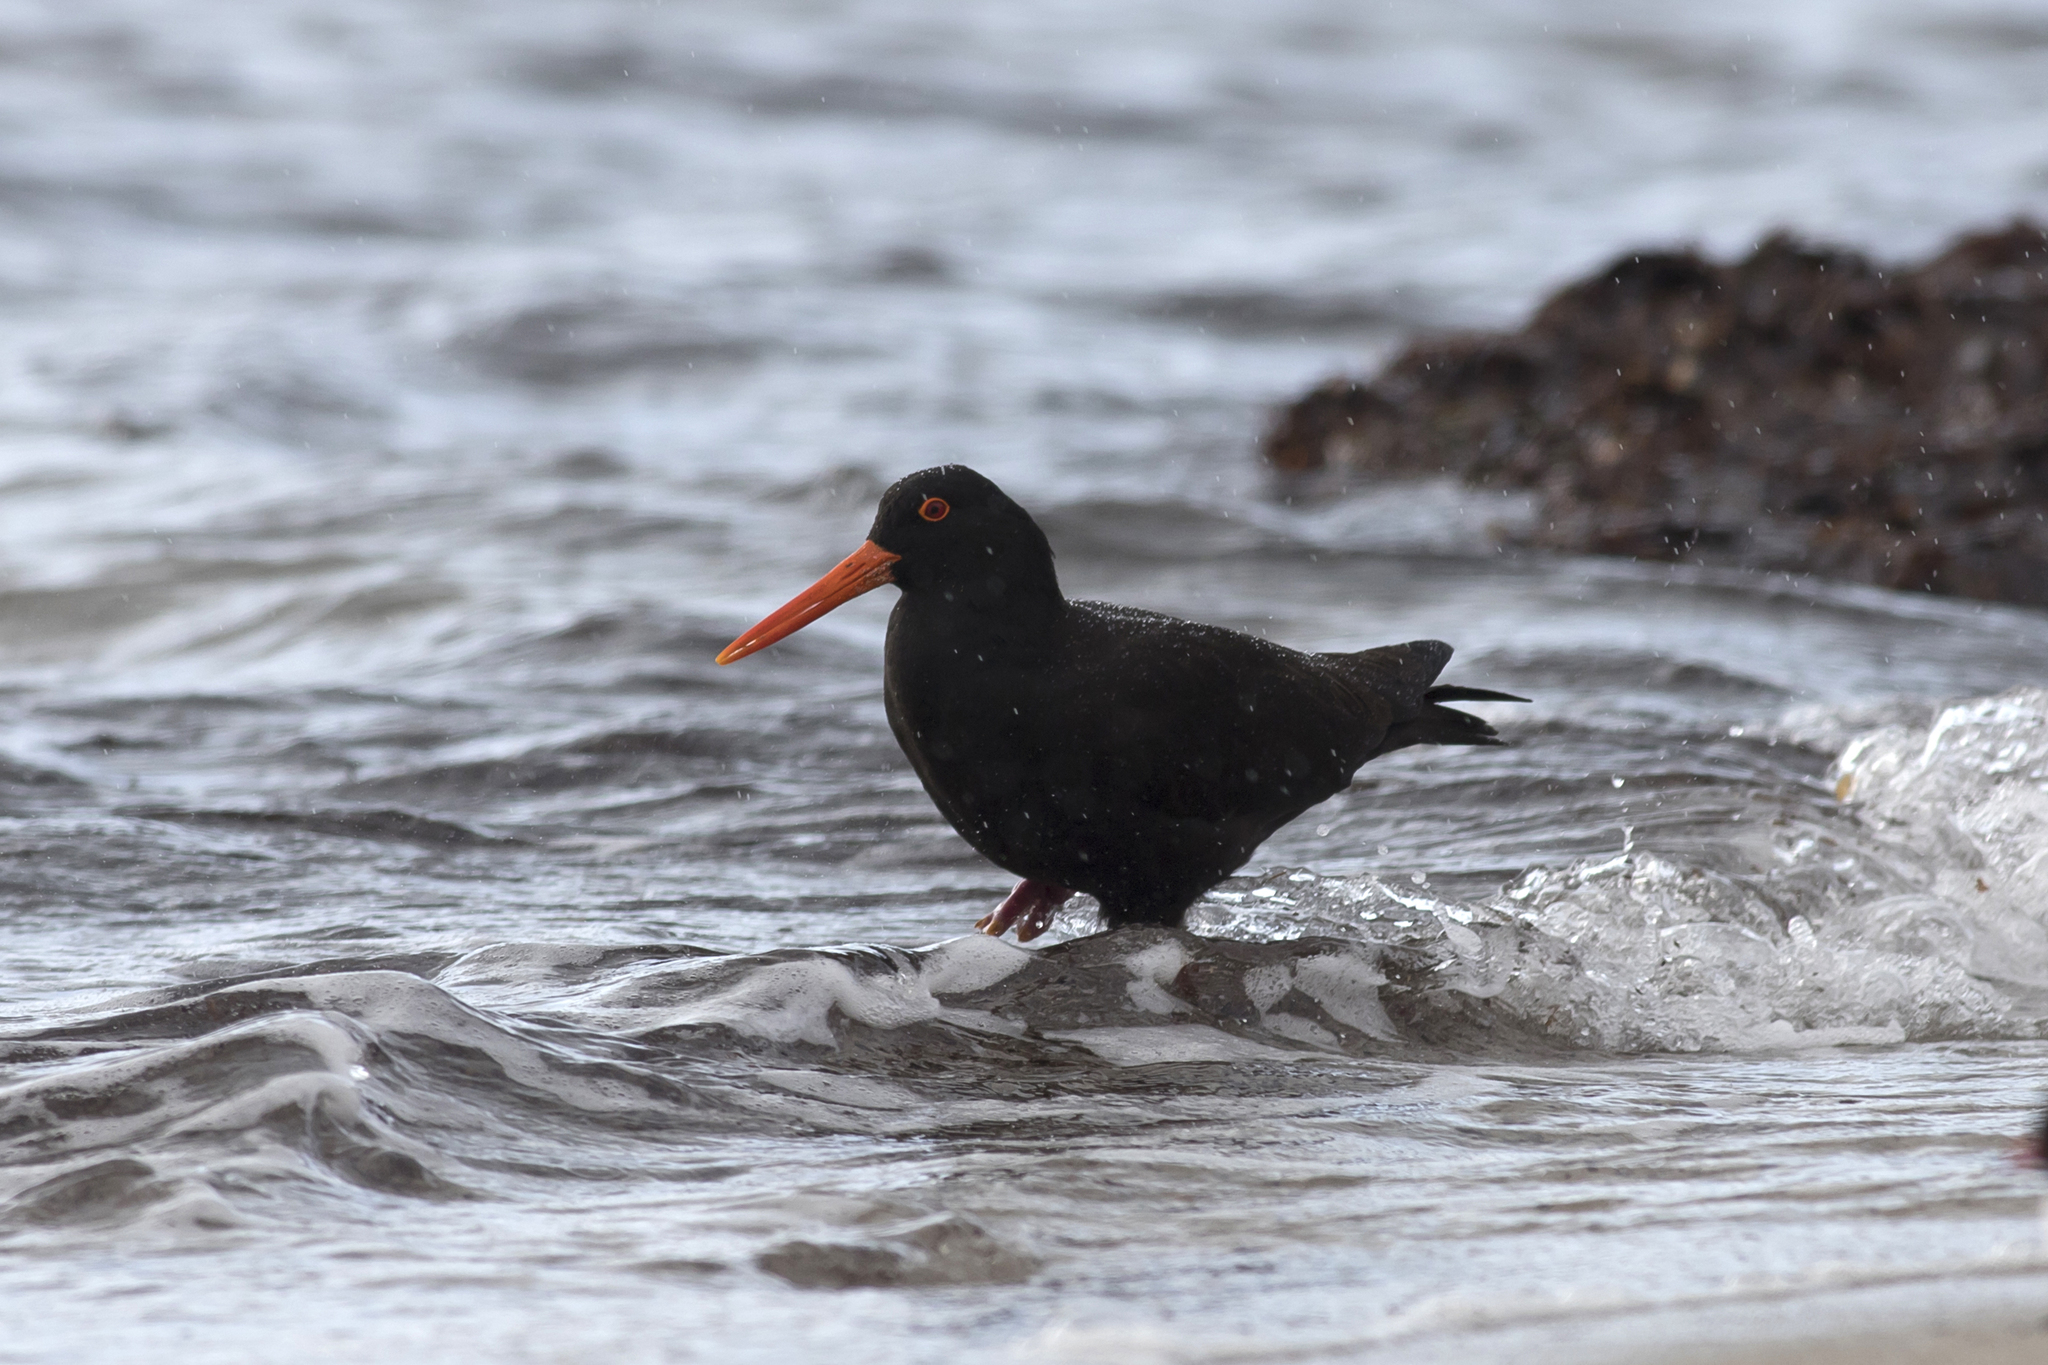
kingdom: Animalia
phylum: Chordata
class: Aves
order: Charadriiformes
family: Haematopodidae
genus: Haematopus
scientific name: Haematopus fuliginosus
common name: Sooty oystercatcher
